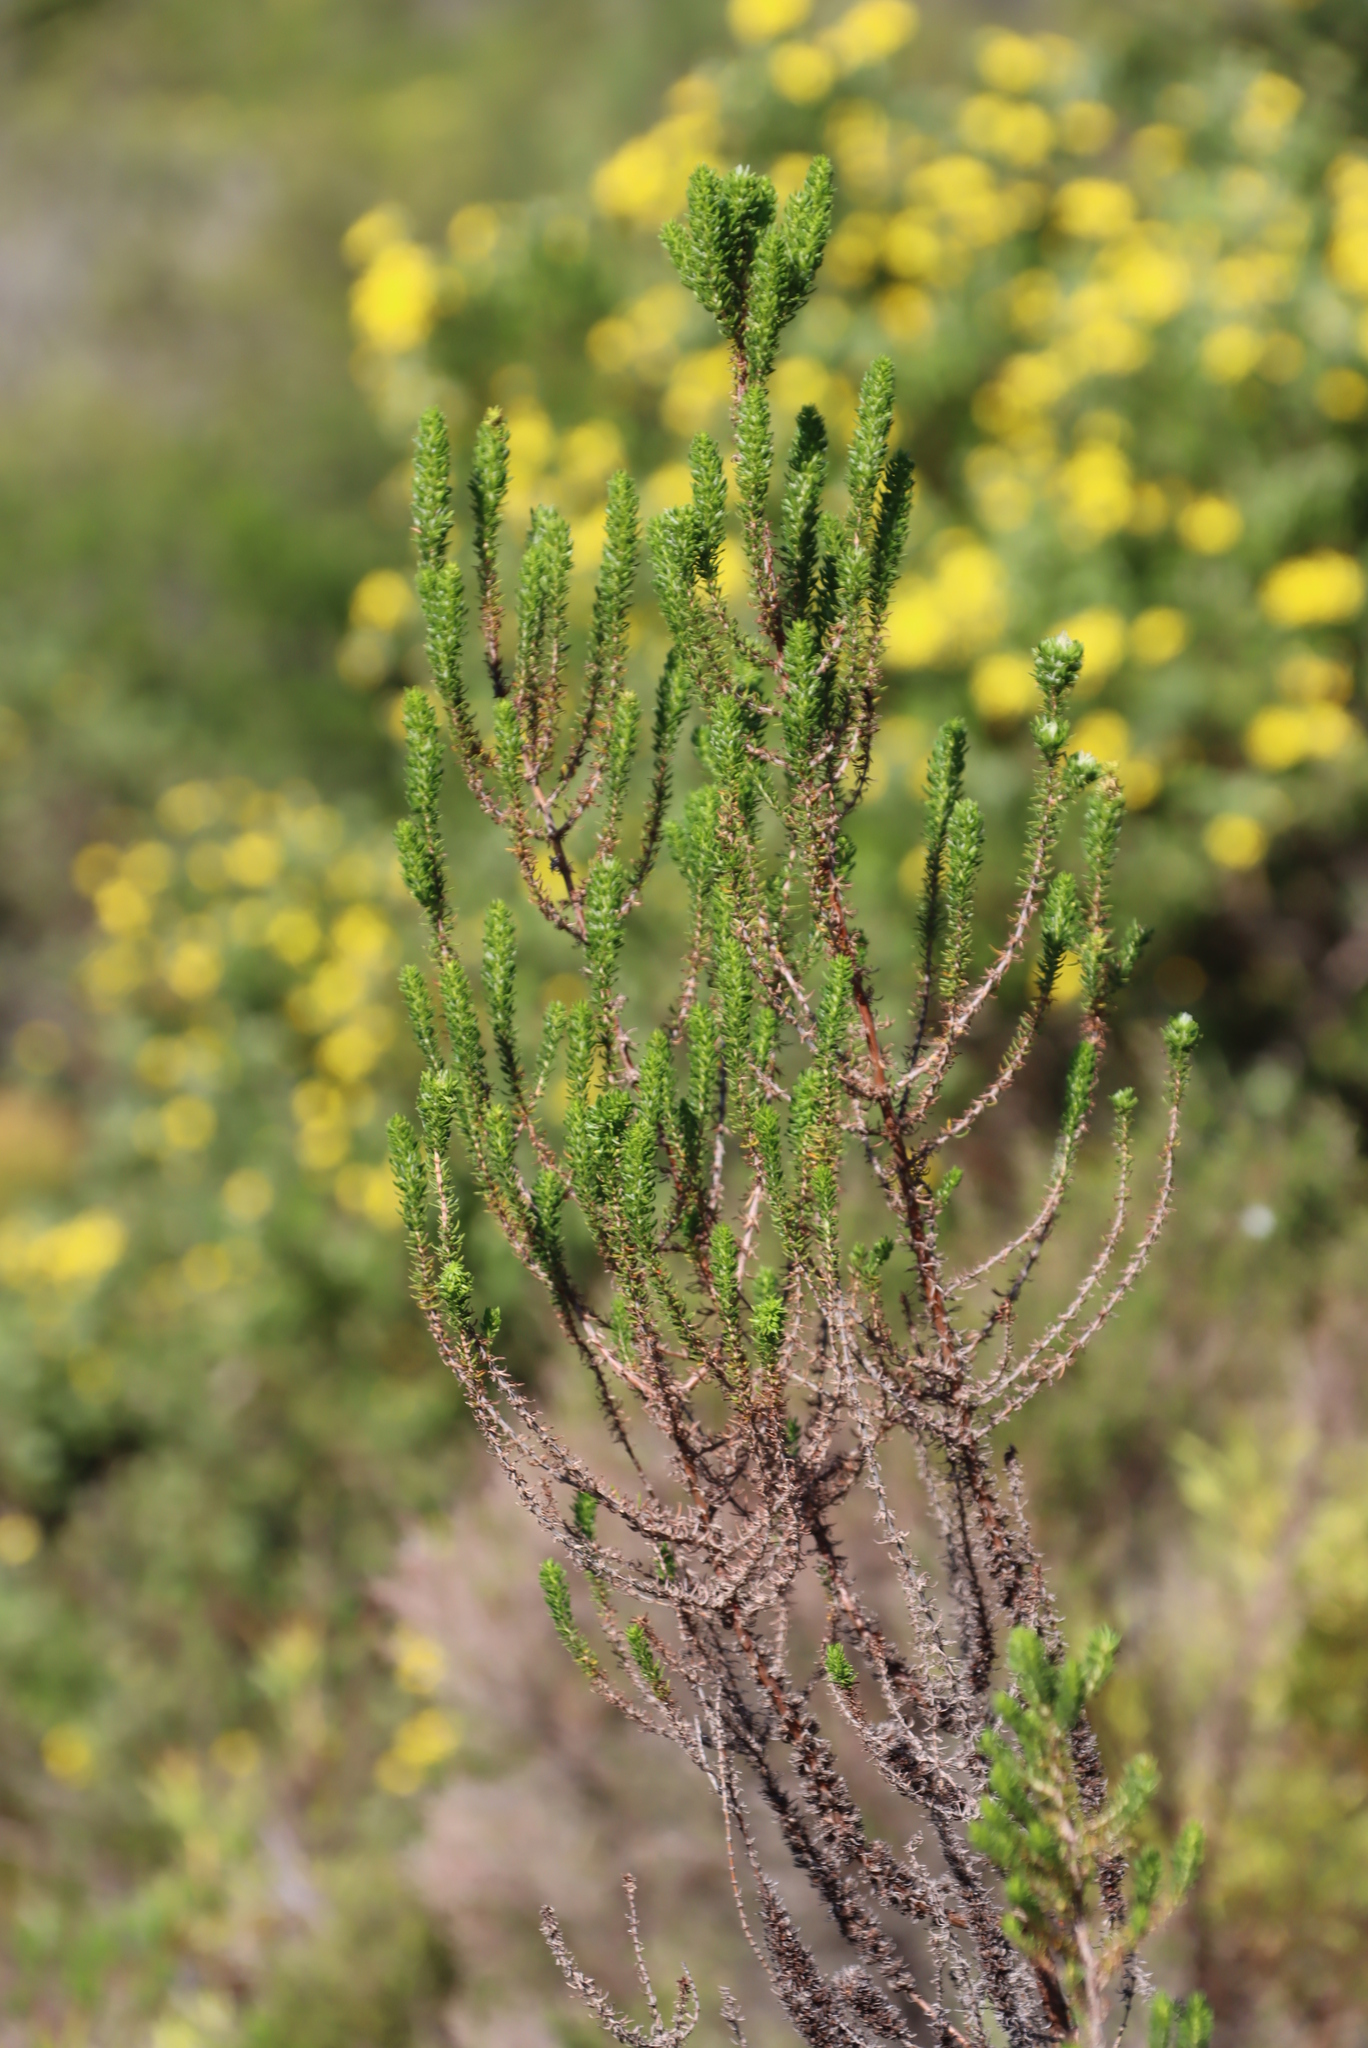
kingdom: Plantae
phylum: Tracheophyta
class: Magnoliopsida
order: Gentianales
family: Rubiaceae
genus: Anthospermum
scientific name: Anthospermum aethiopicum
